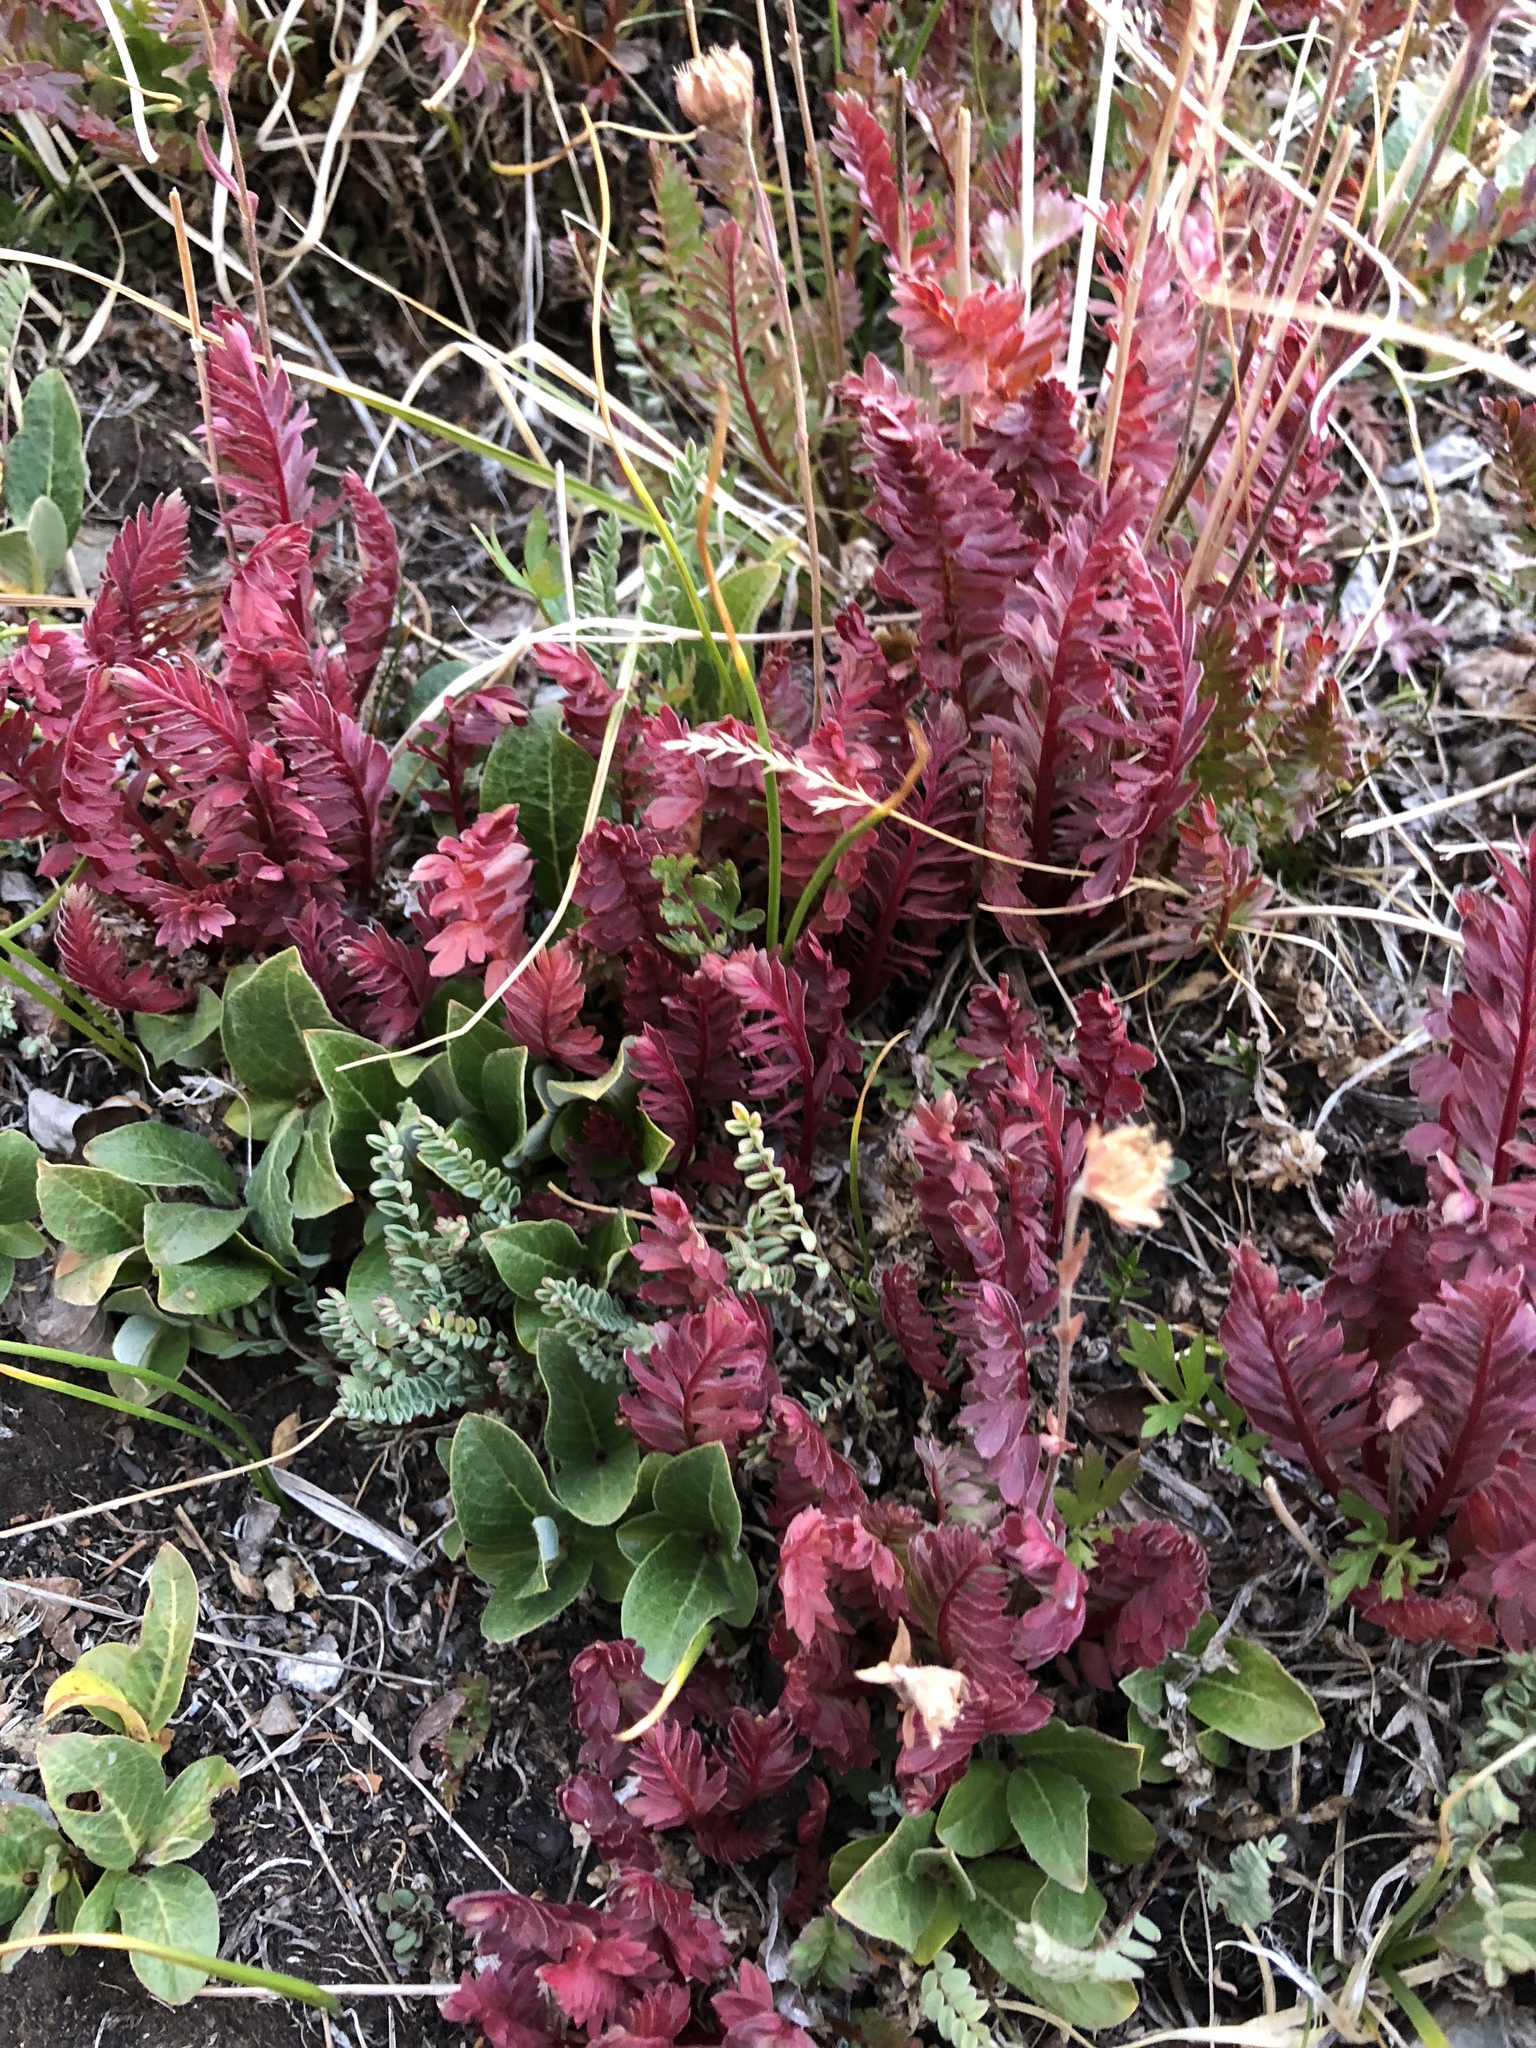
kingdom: Plantae
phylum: Tracheophyta
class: Magnoliopsida
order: Rosales
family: Rosaceae
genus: Geum
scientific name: Geum rossii
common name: Alpine avens
